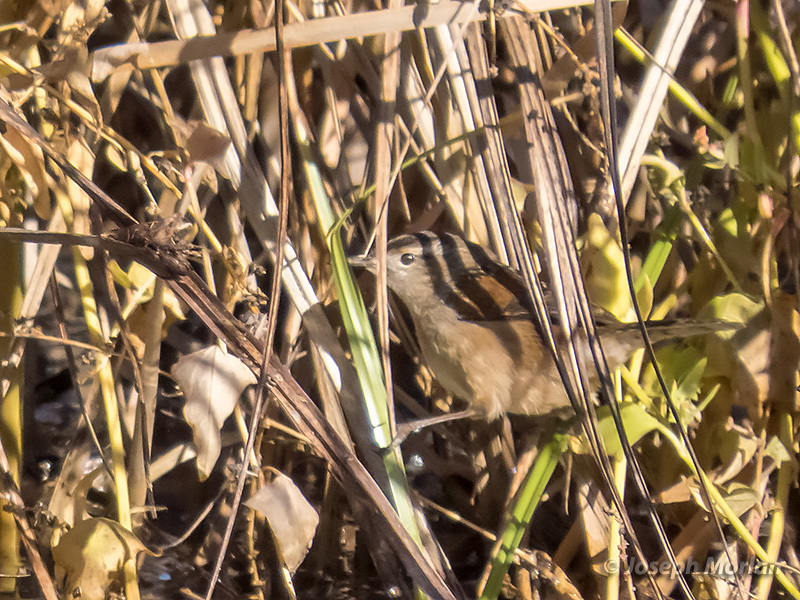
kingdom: Animalia
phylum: Chordata
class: Aves
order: Passeriformes
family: Troglodytidae
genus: Cistothorus
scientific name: Cistothorus palustris
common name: Marsh wren
